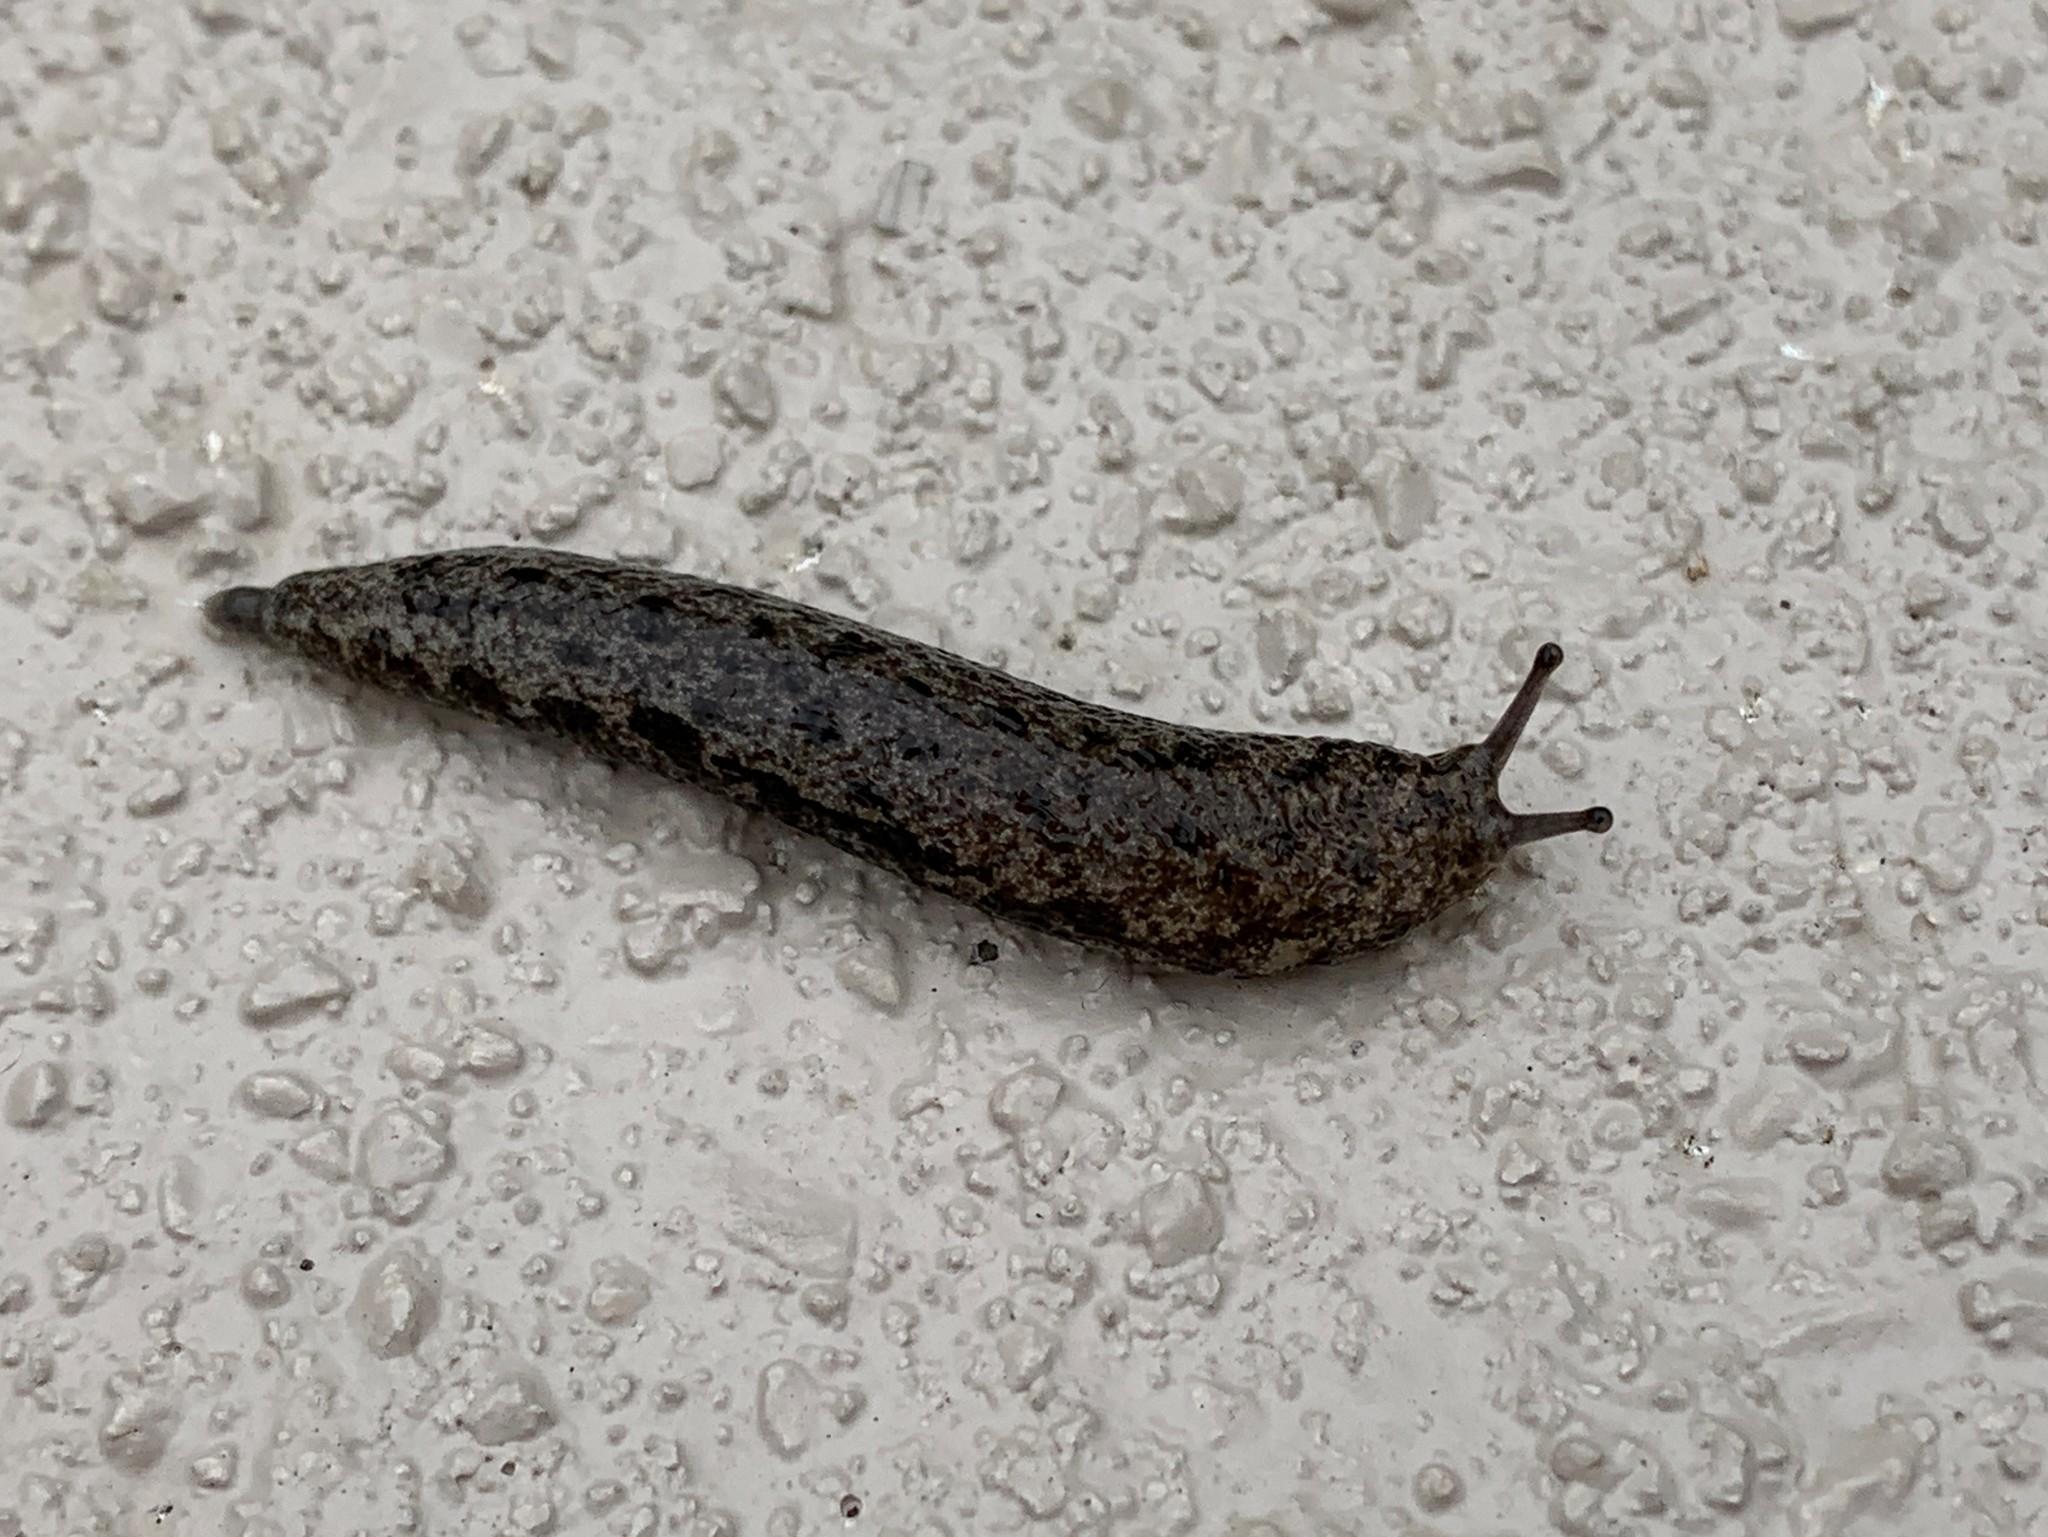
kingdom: Animalia
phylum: Mollusca
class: Gastropoda
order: Stylommatophora
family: Philomycidae
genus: Megapallifera
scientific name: Megapallifera mutabilis
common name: Changeable mantleslug
